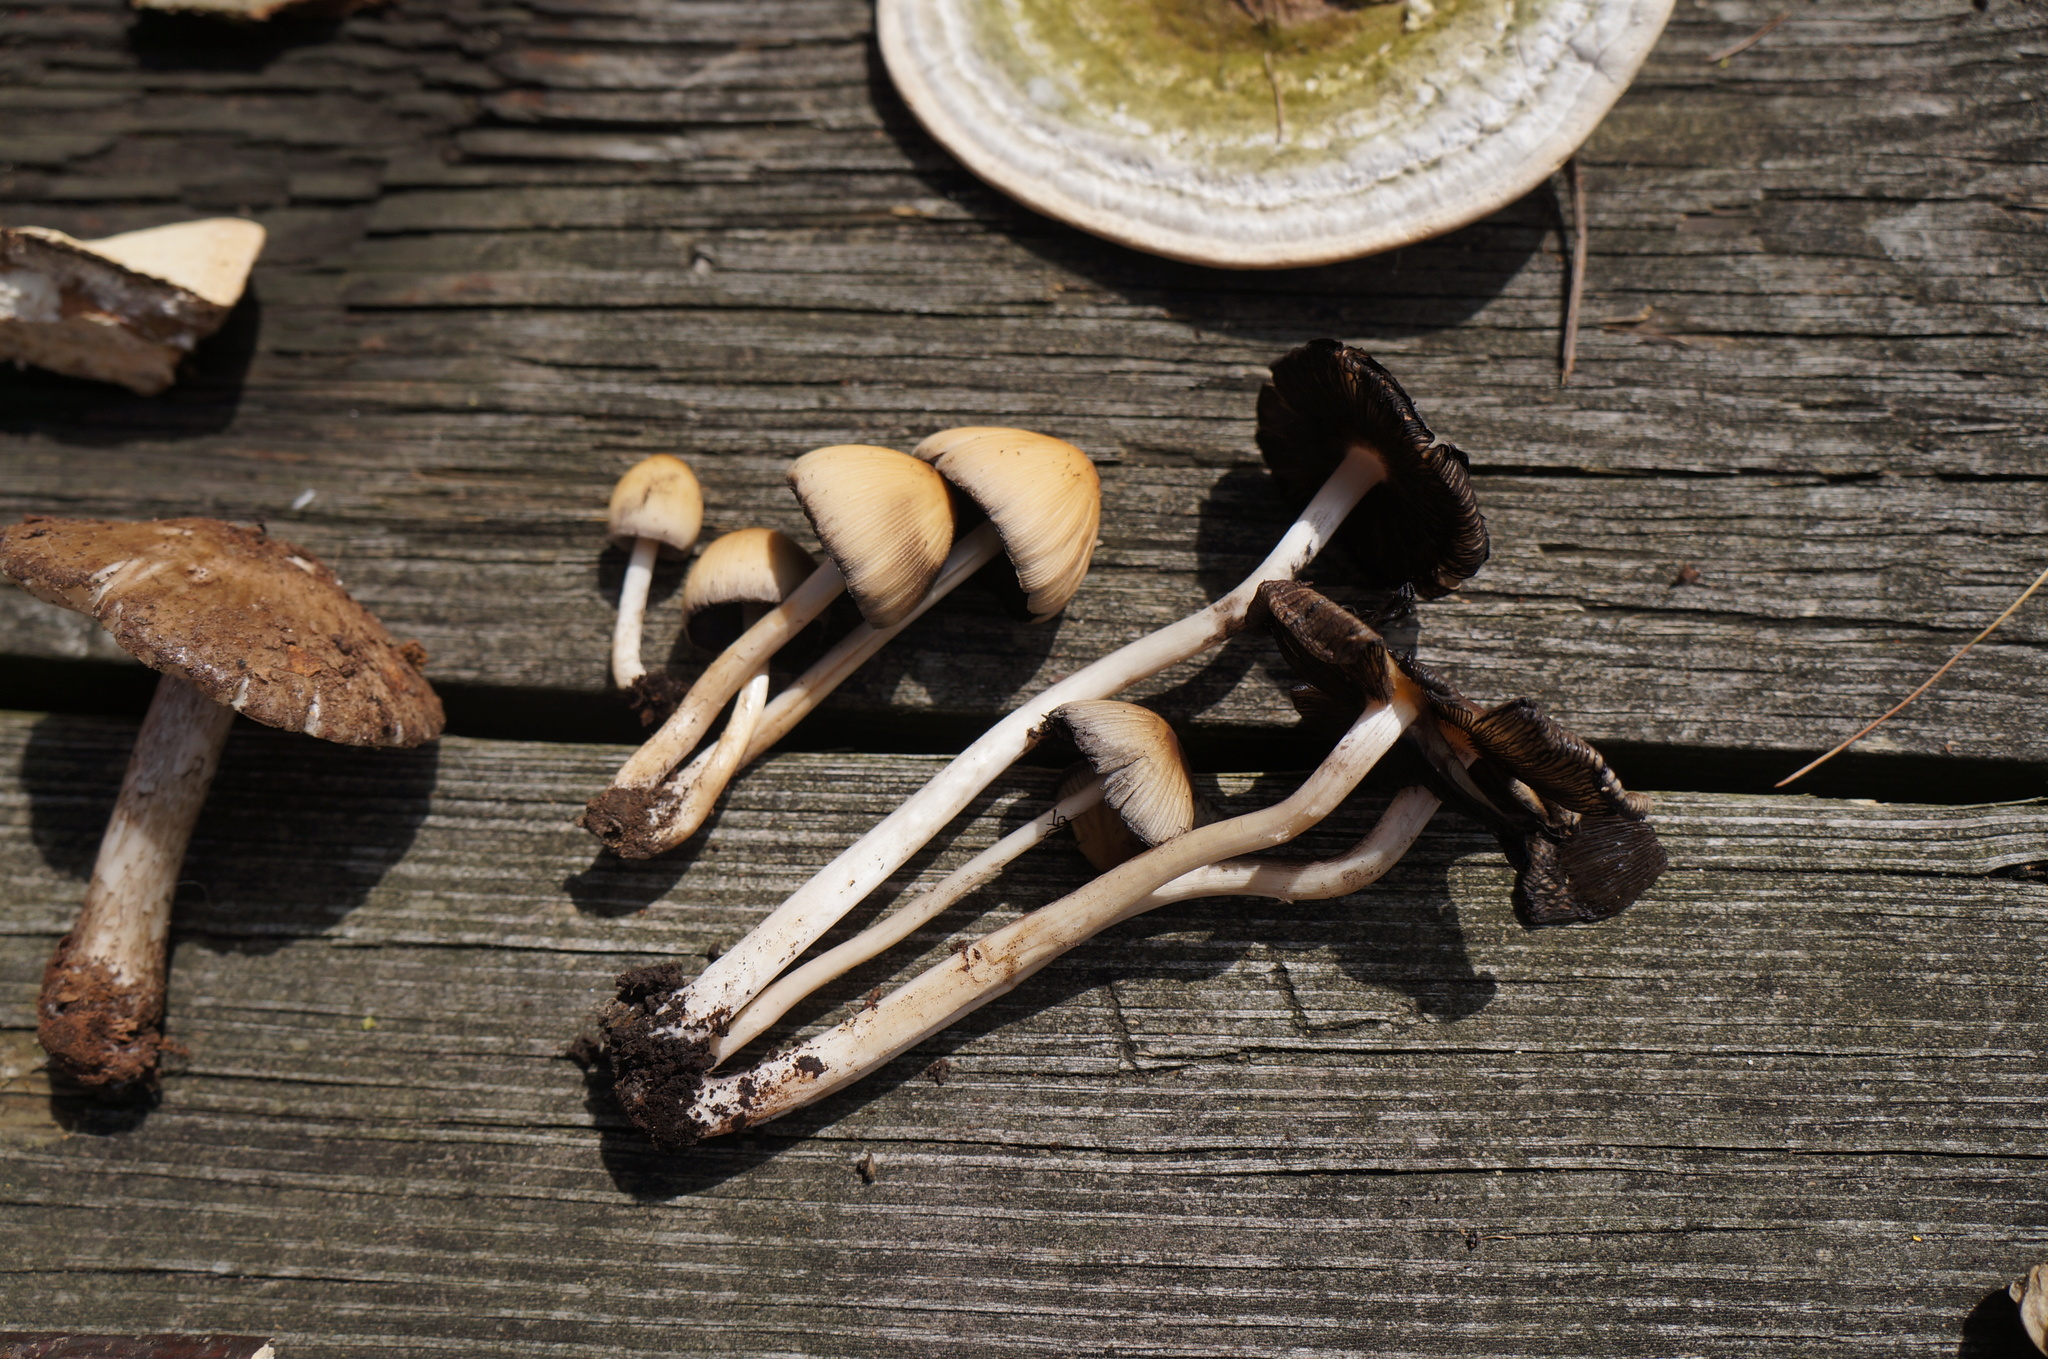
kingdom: Fungi
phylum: Basidiomycota
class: Agaricomycetes
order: Agaricales
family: Psathyrellaceae
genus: Coprinellus
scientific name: Coprinellus micaceus
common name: Glistening ink-cap
